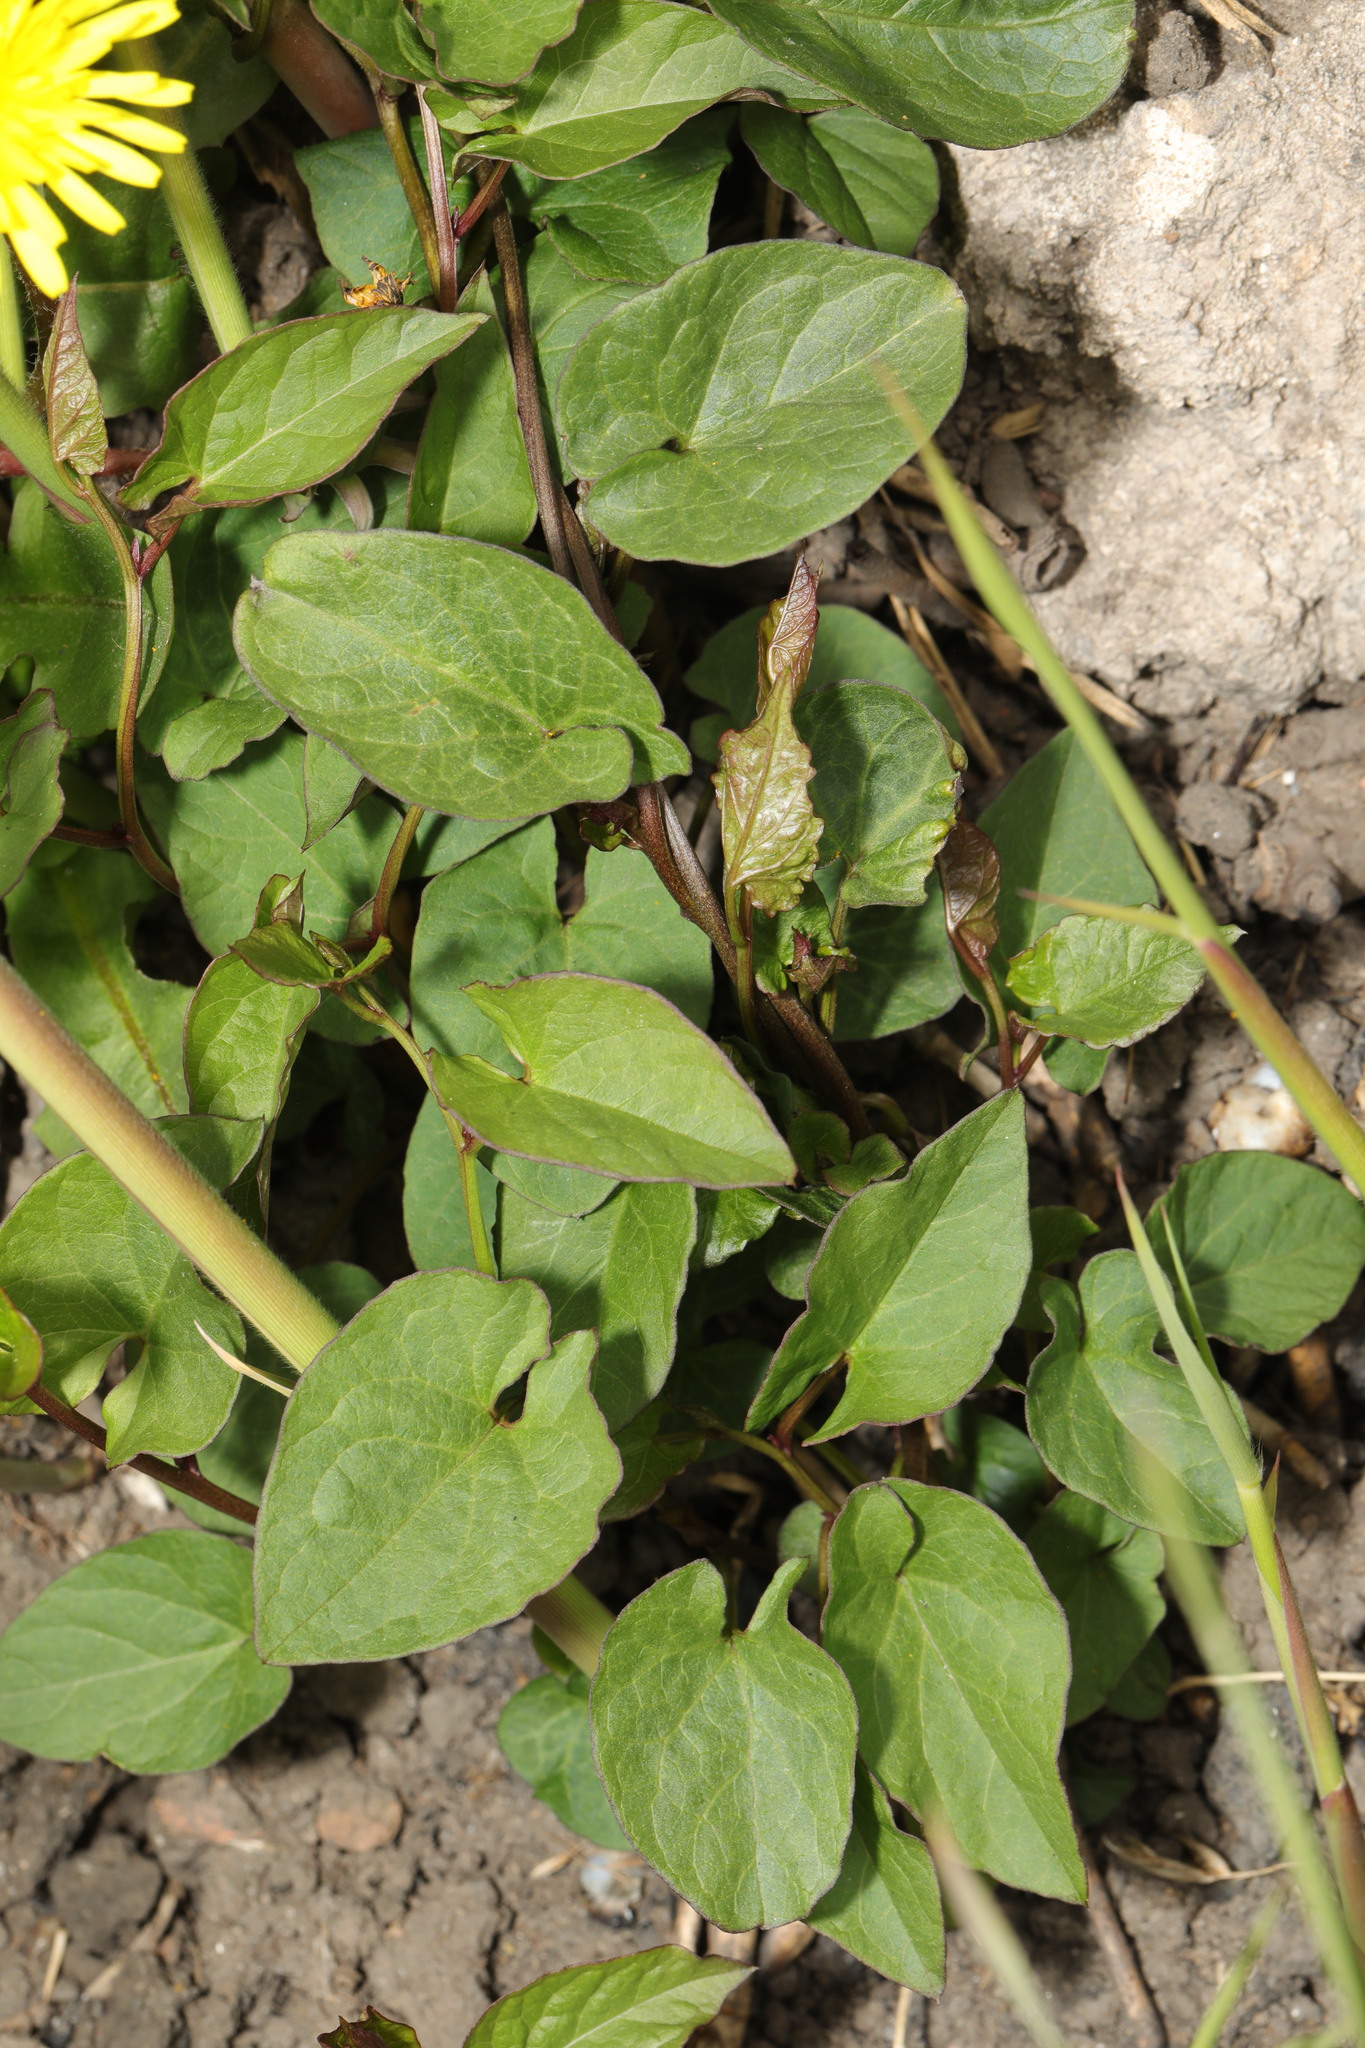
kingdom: Plantae
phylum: Tracheophyta
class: Magnoliopsida
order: Caryophyllales
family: Polygonaceae
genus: Fallopia
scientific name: Fallopia convolvulus
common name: Black bindweed
